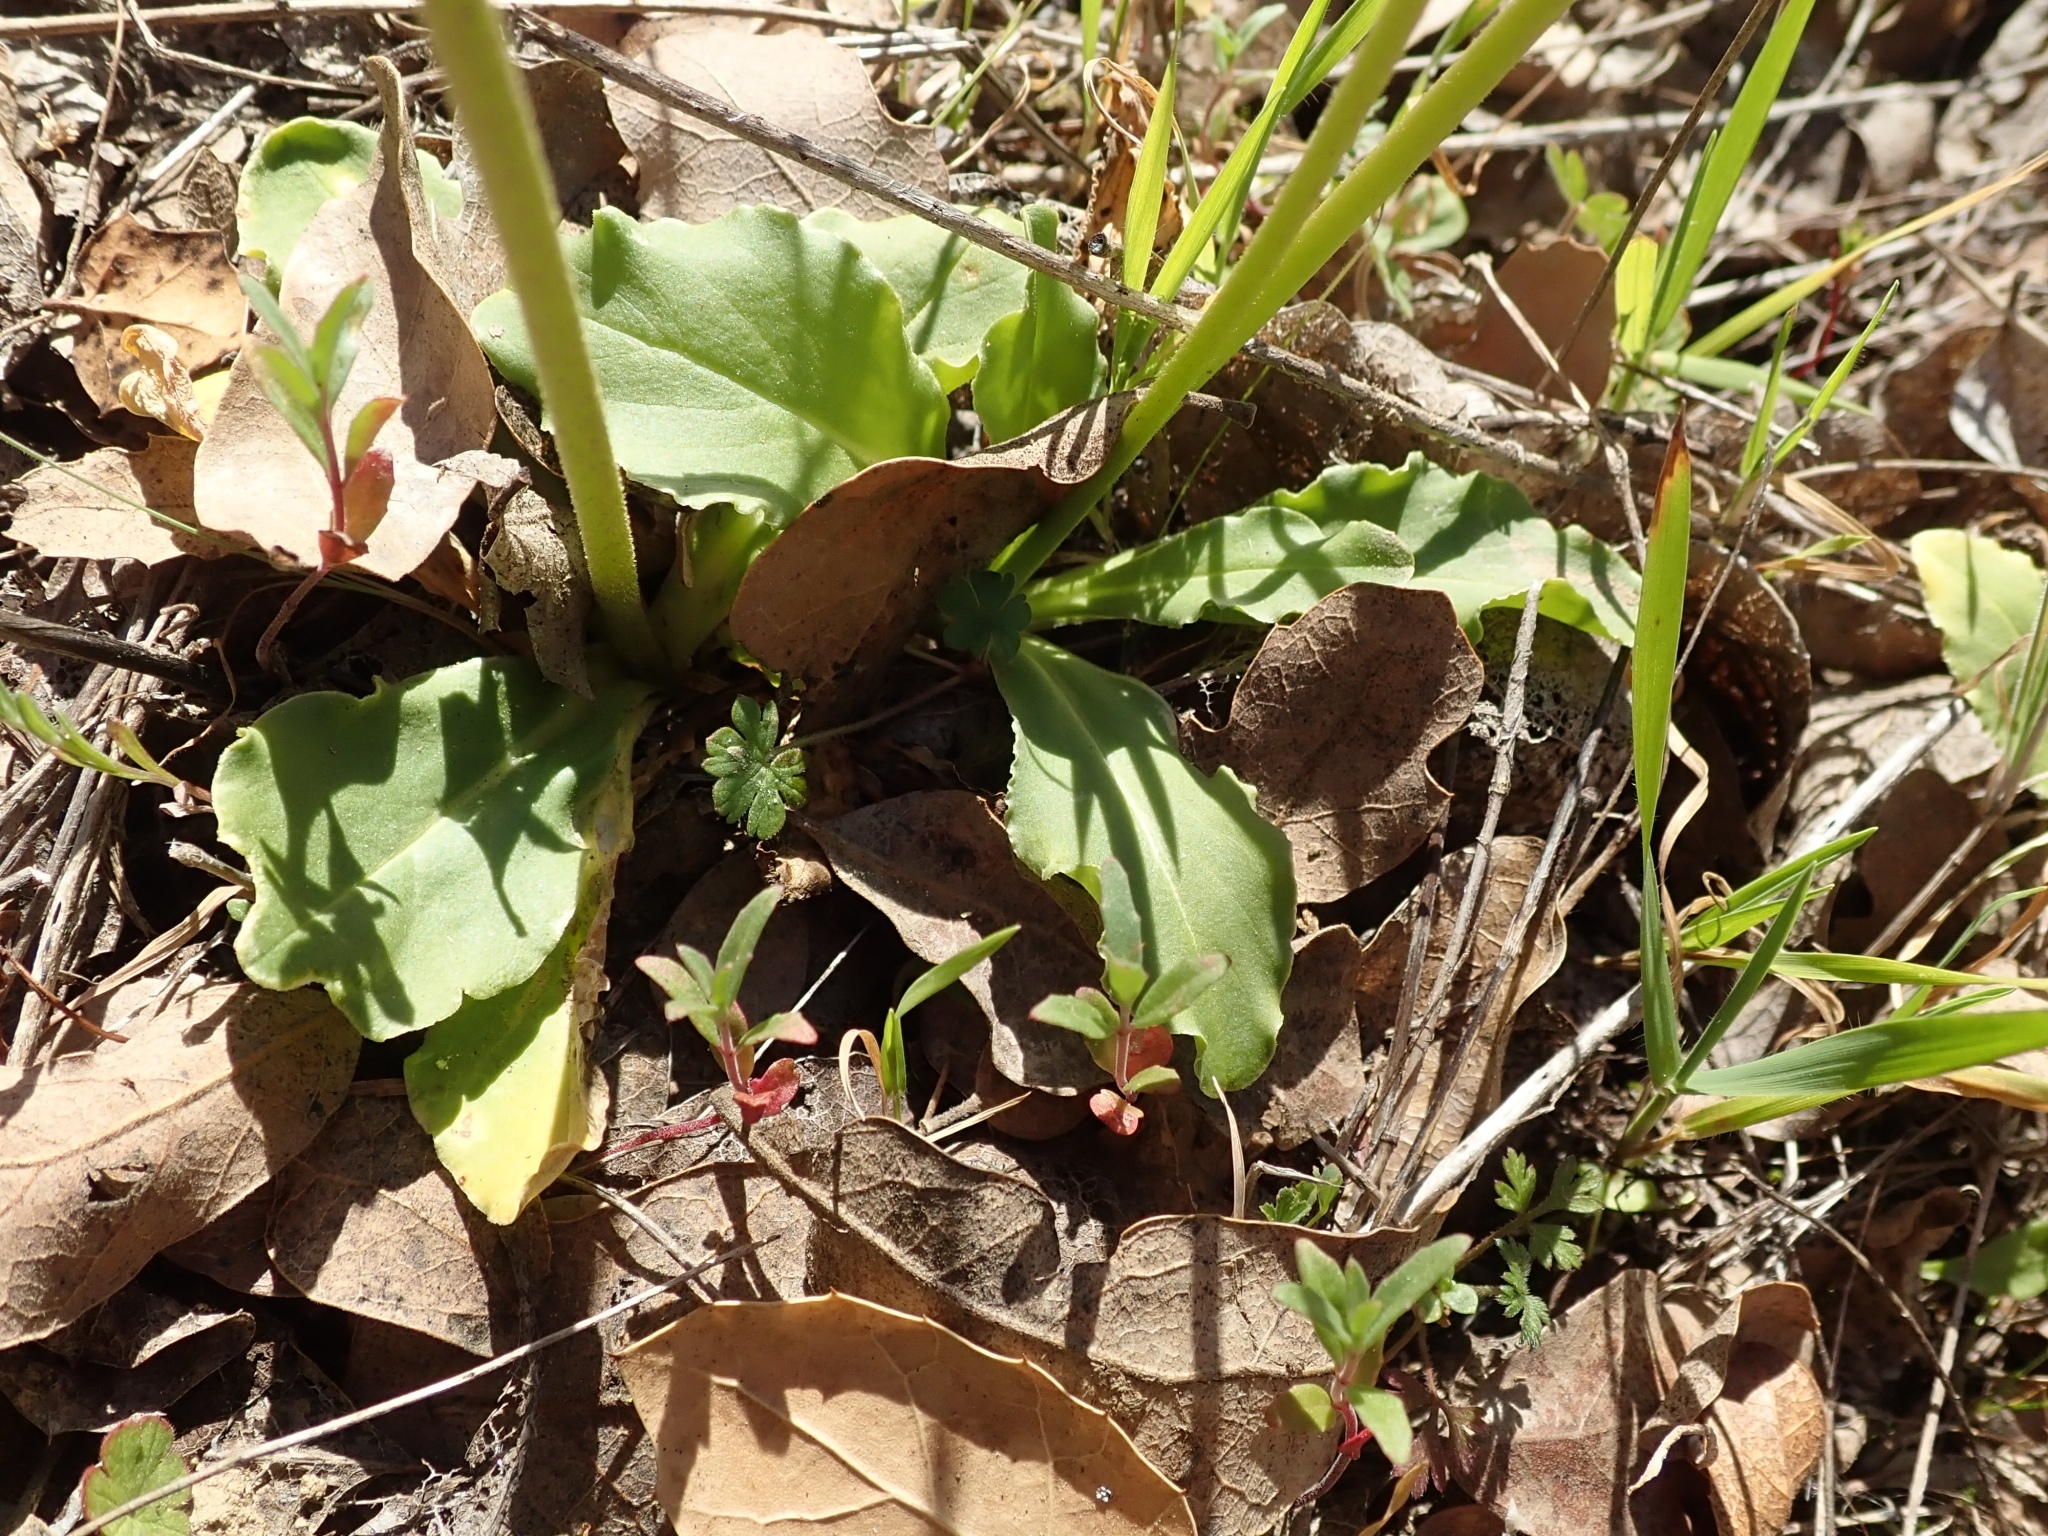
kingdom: Plantae
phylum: Tracheophyta
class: Magnoliopsida
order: Ericales
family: Primulaceae
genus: Dodecatheon
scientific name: Dodecatheon clevelandii
